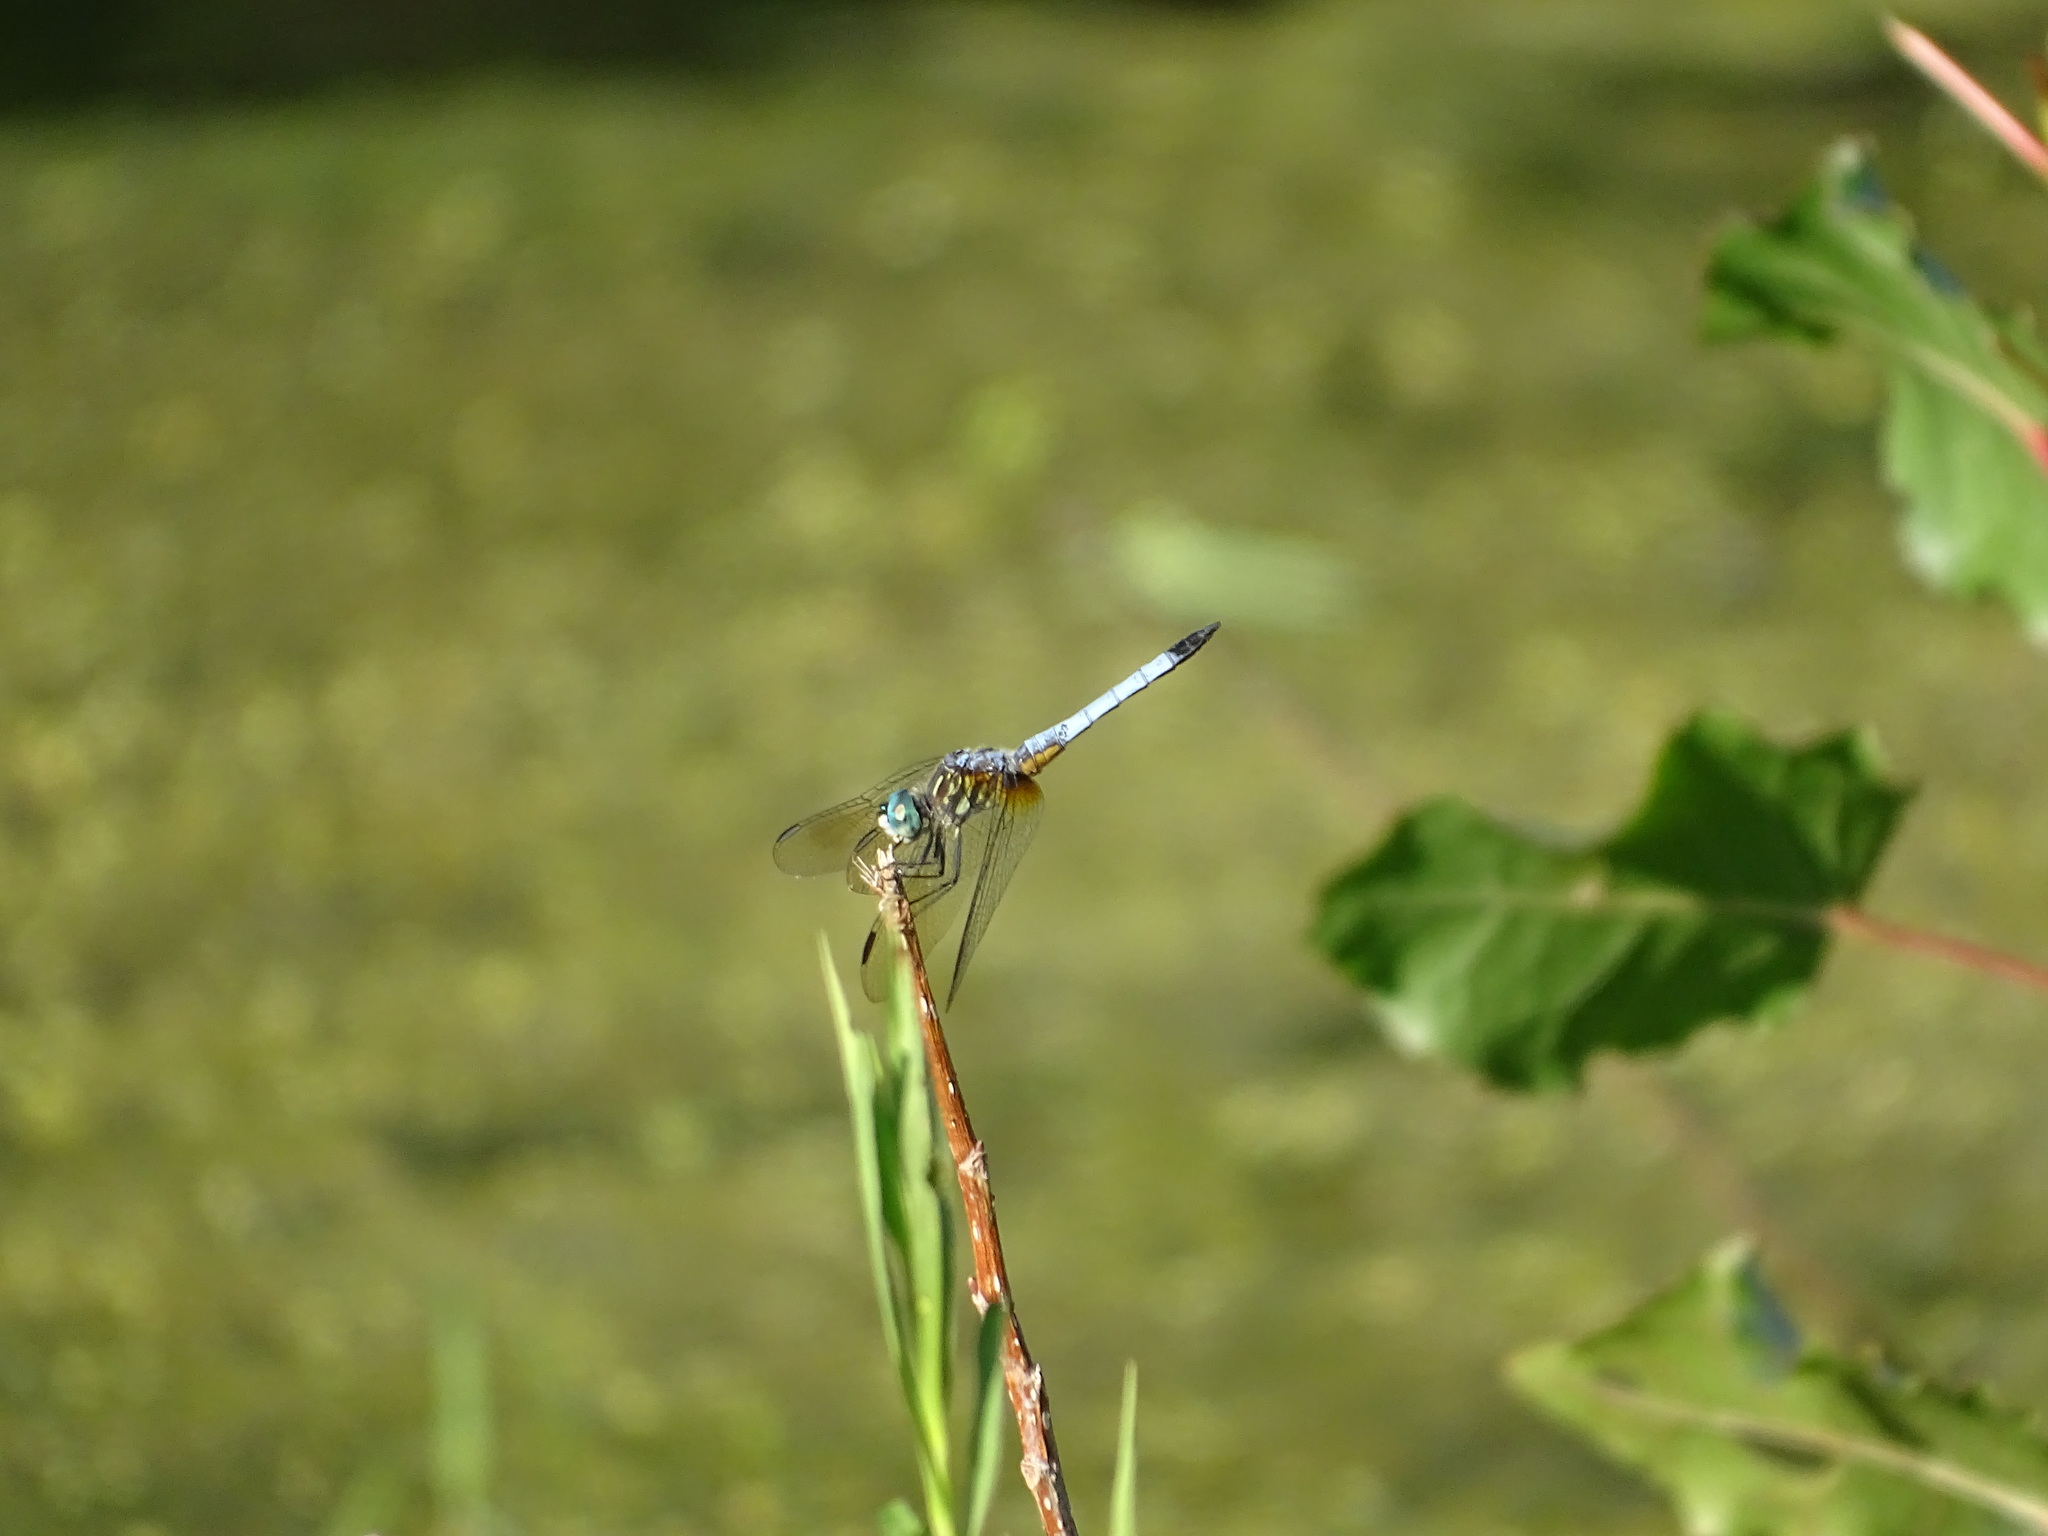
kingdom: Animalia
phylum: Arthropoda
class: Insecta
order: Odonata
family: Libellulidae
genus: Pachydiplax
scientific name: Pachydiplax longipennis
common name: Blue dasher
